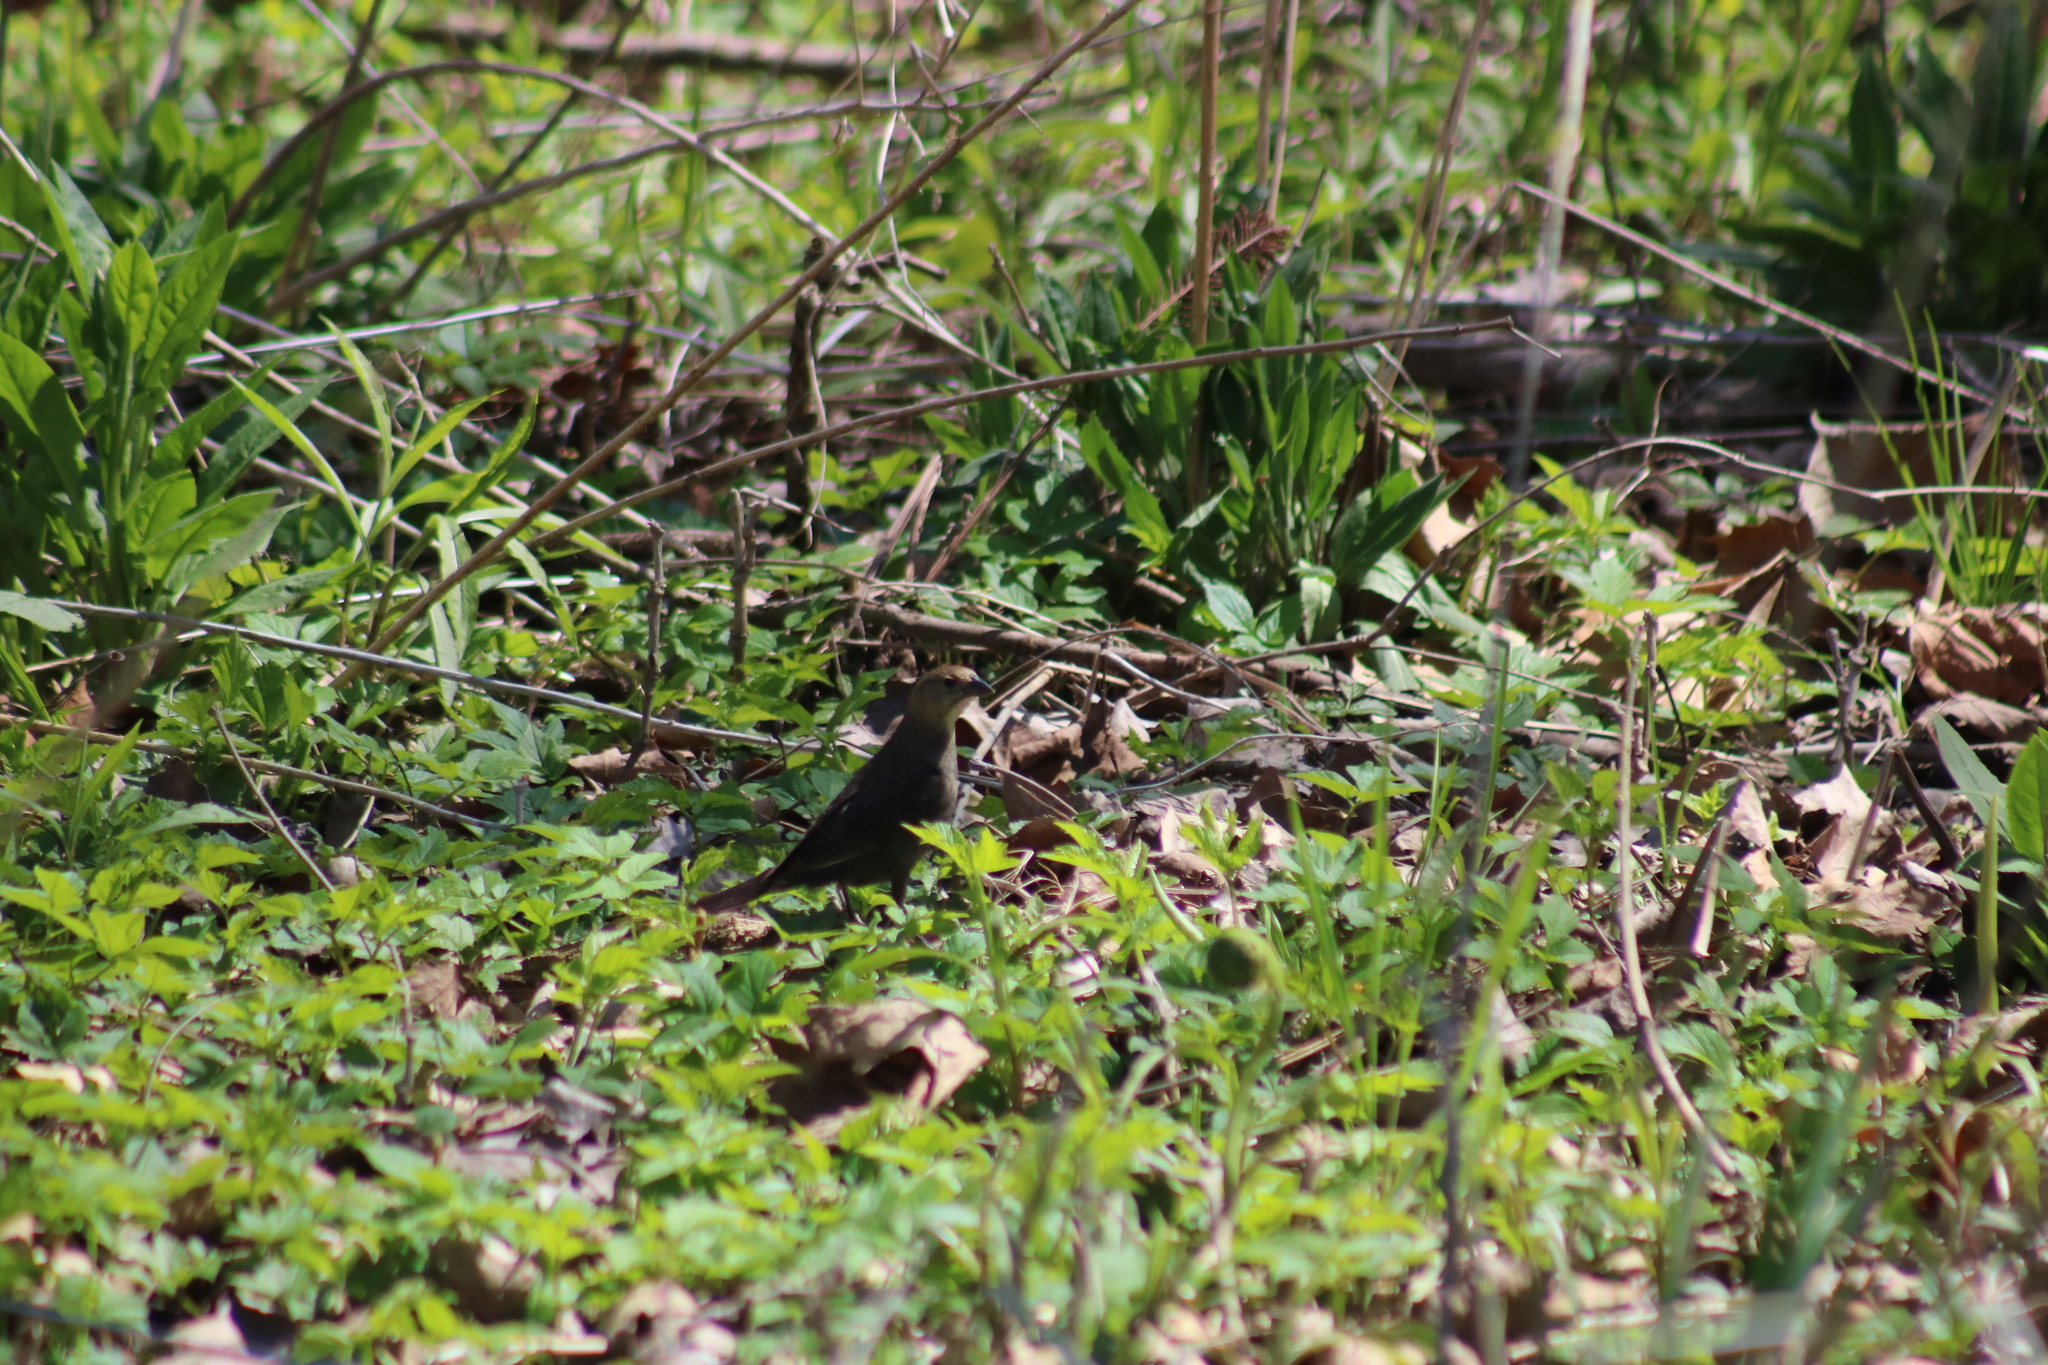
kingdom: Animalia
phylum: Chordata
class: Aves
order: Passeriformes
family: Icteridae
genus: Molothrus
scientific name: Molothrus ater
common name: Brown-headed cowbird
